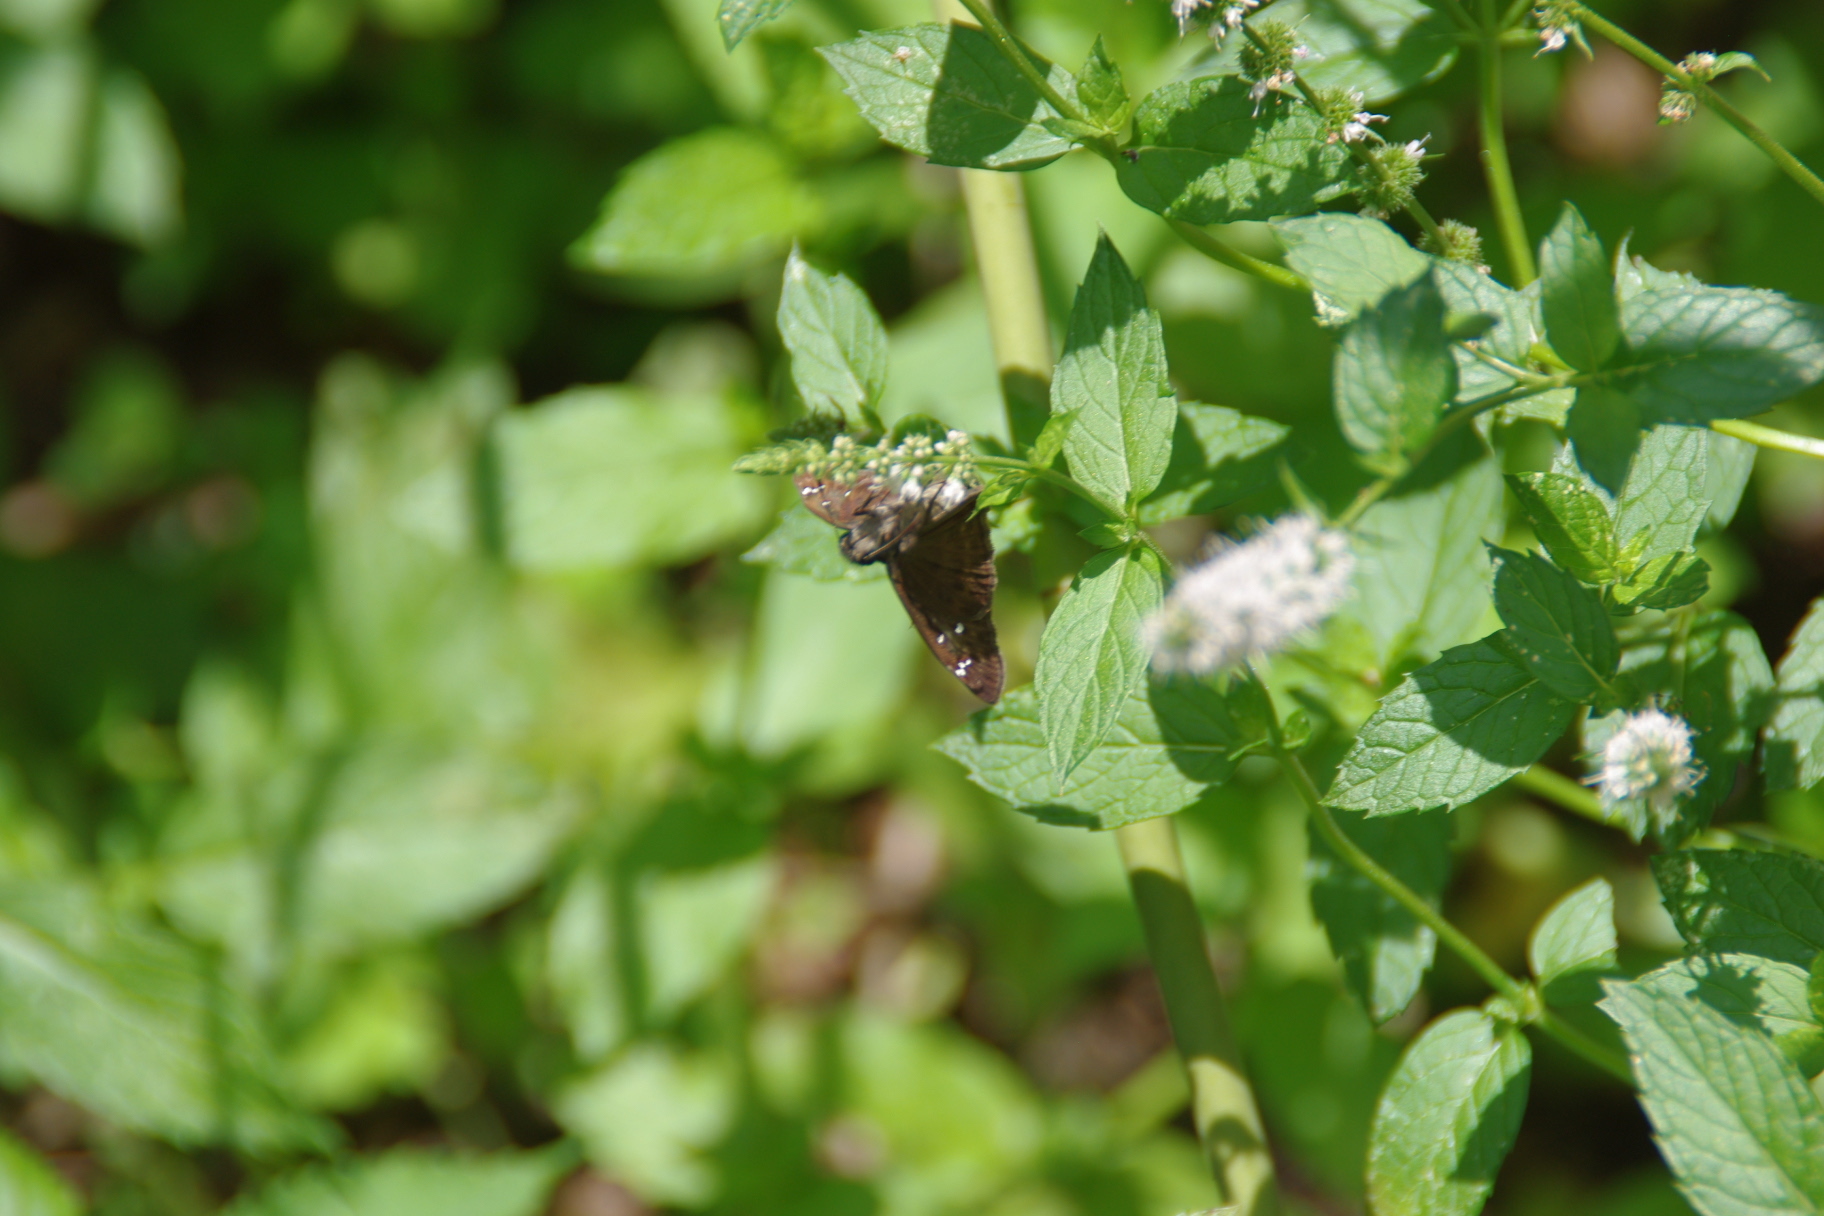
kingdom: Animalia
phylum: Arthropoda
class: Insecta
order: Lepidoptera
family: Hesperiidae
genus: Erynnis
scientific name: Erynnis horatius
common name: Horace's duskywing
